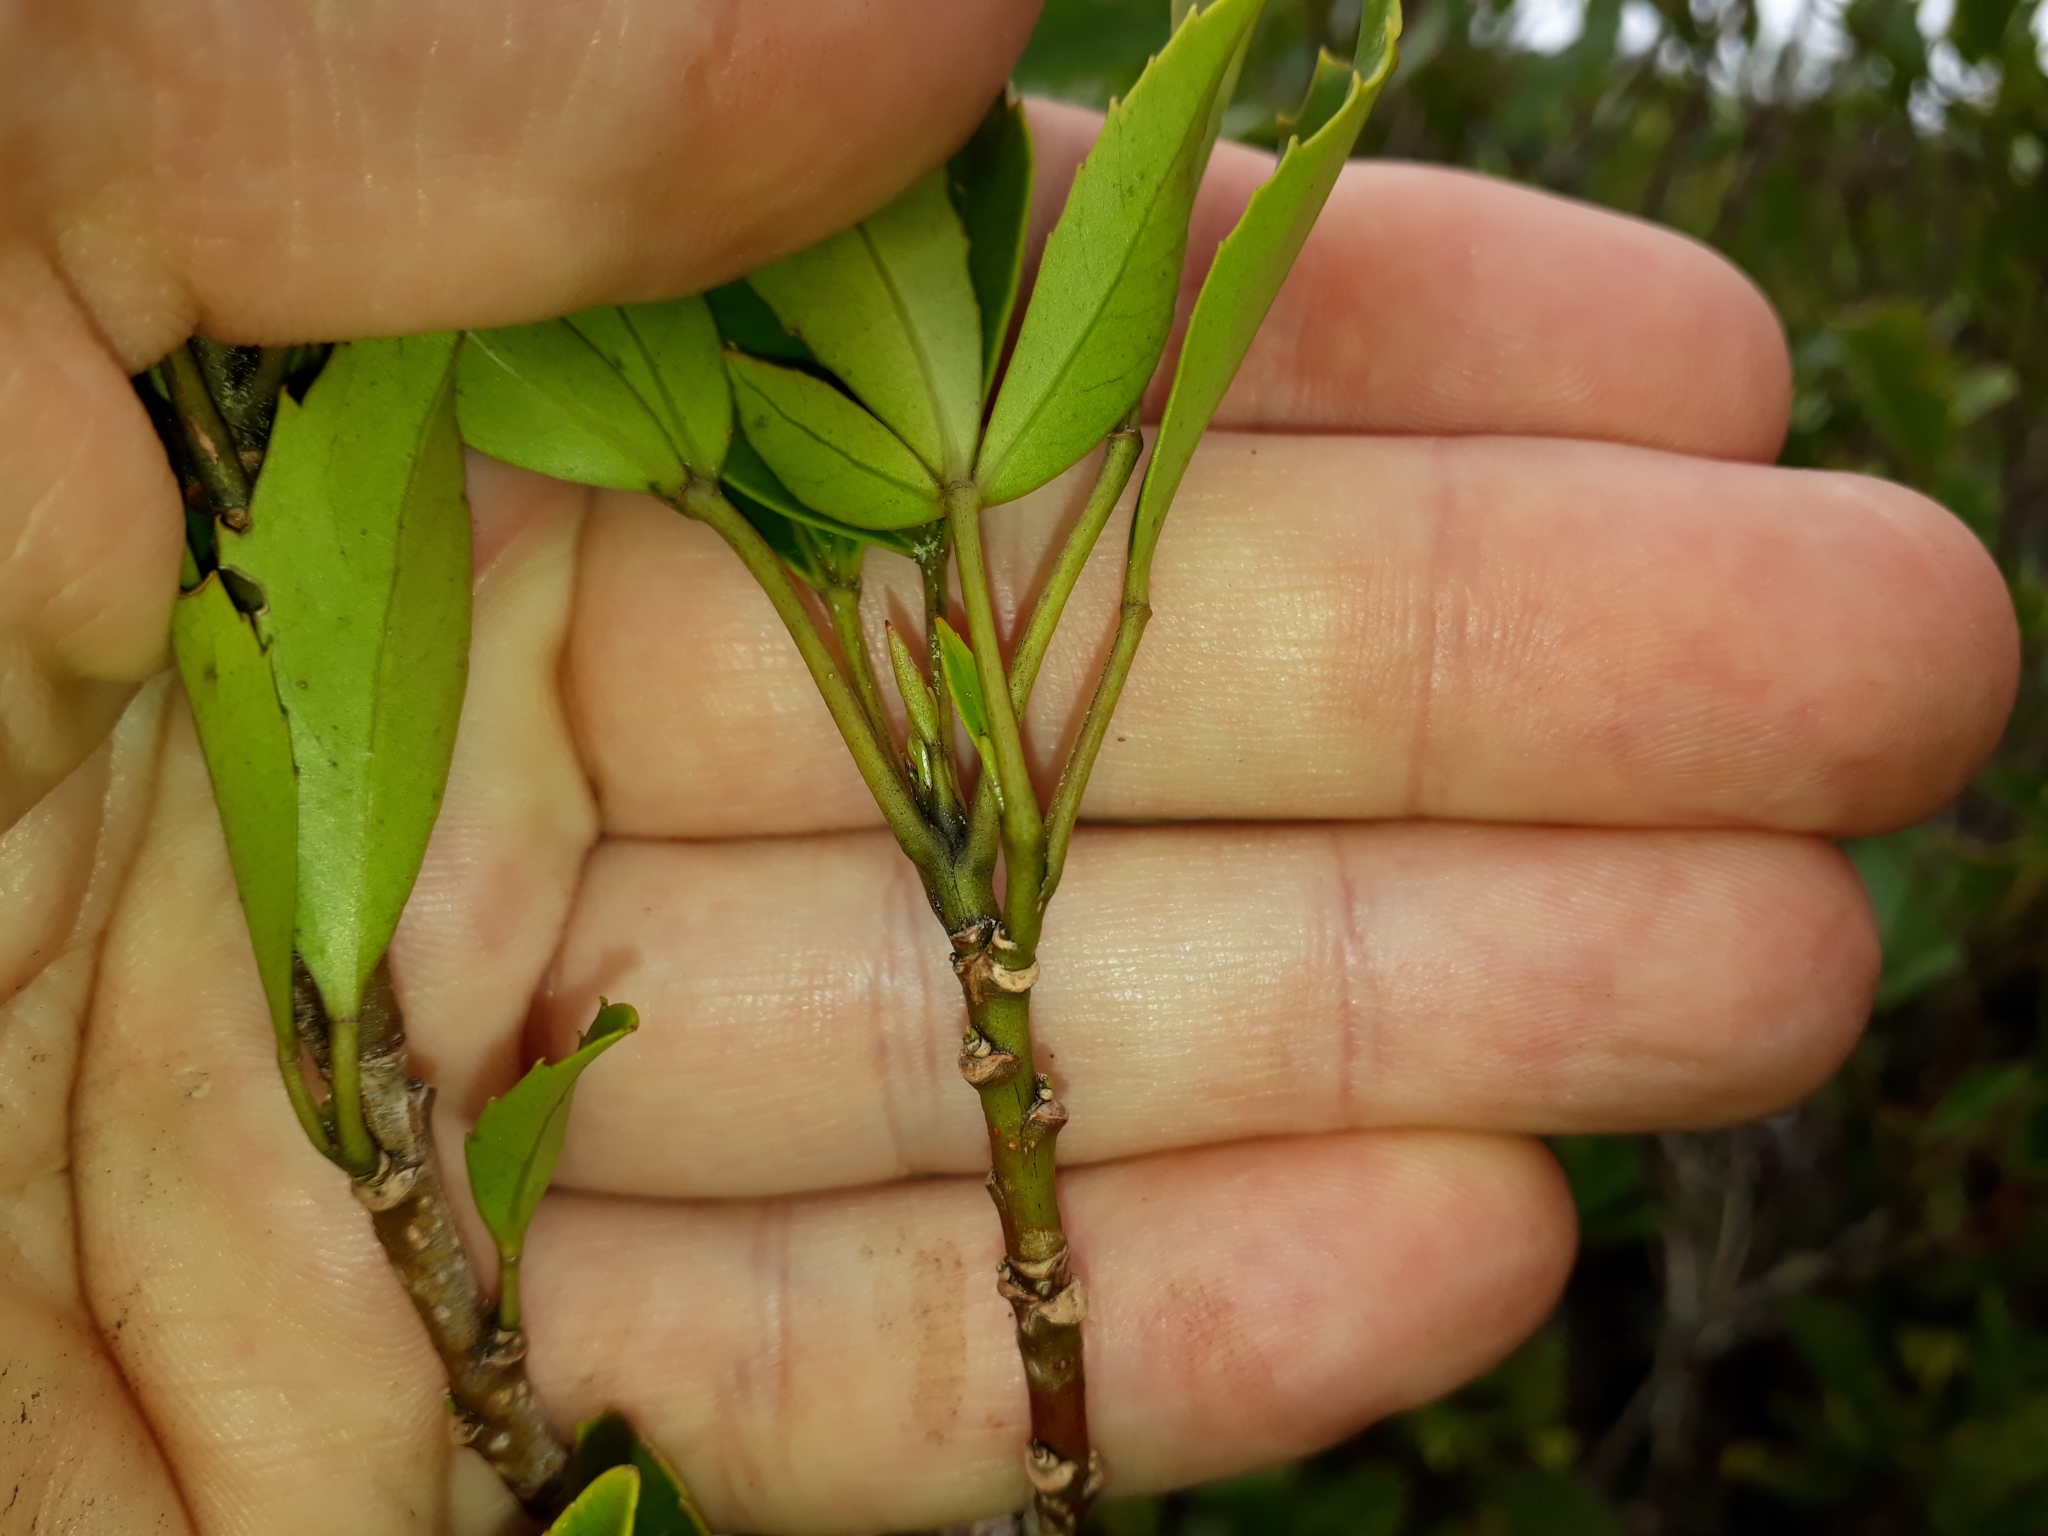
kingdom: Plantae
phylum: Tracheophyta
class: Magnoliopsida
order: Apiales
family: Araliaceae
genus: Raukaua
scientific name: Raukaua simplex
